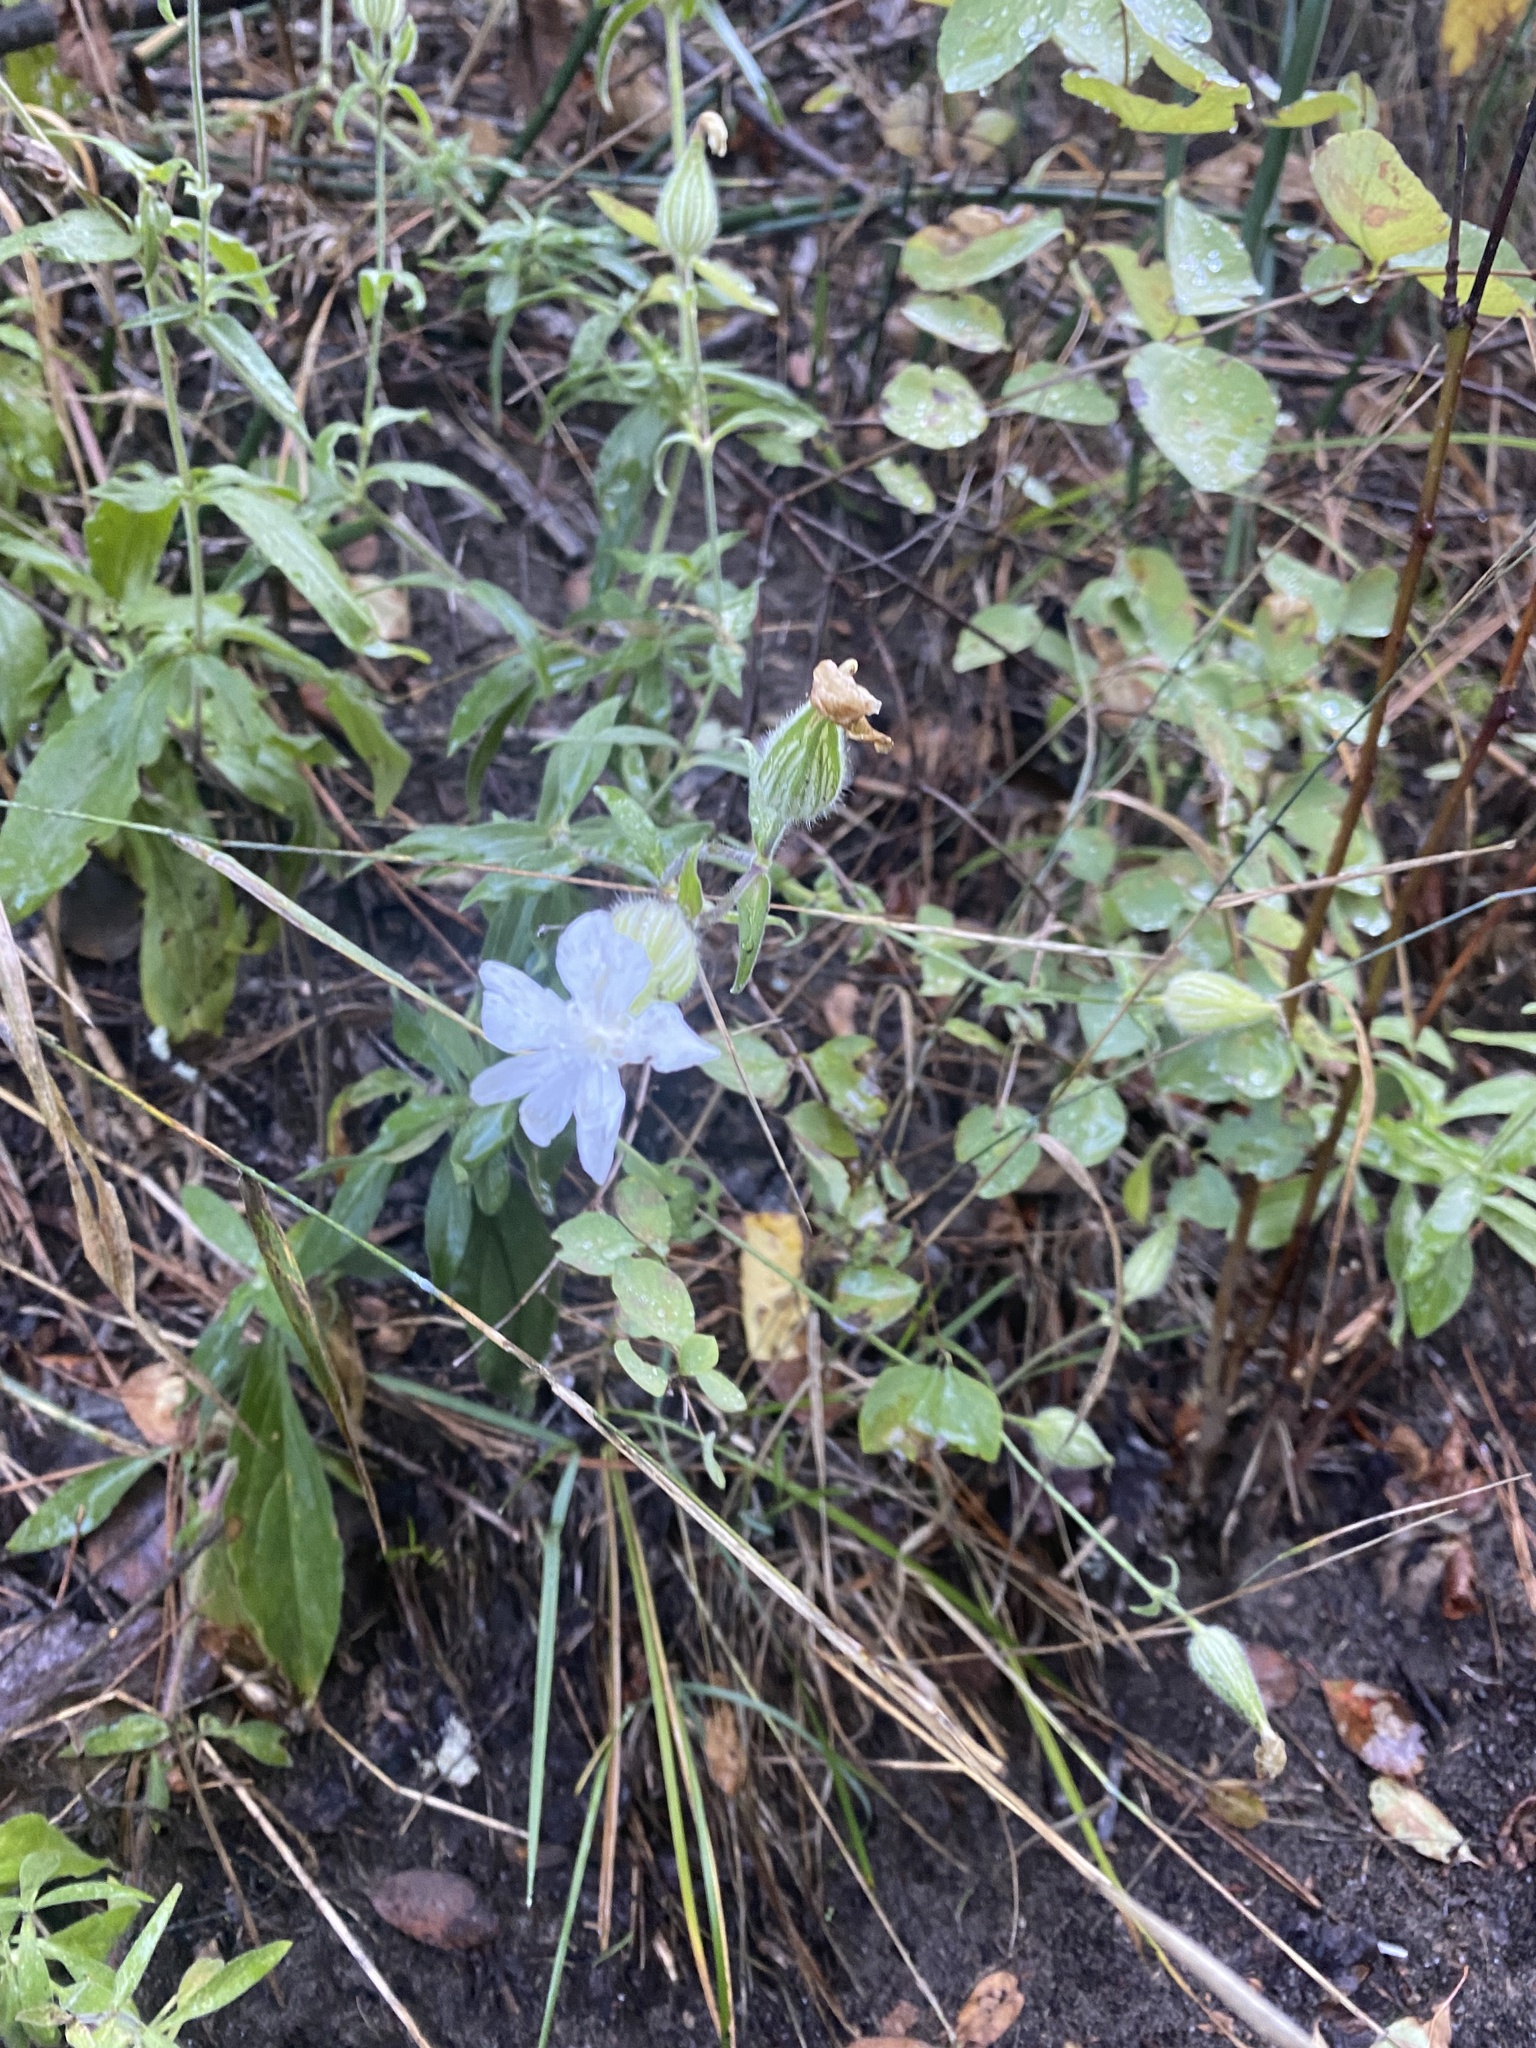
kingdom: Plantae
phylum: Tracheophyta
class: Magnoliopsida
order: Caryophyllales
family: Caryophyllaceae
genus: Silene
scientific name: Silene latifolia
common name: White campion
